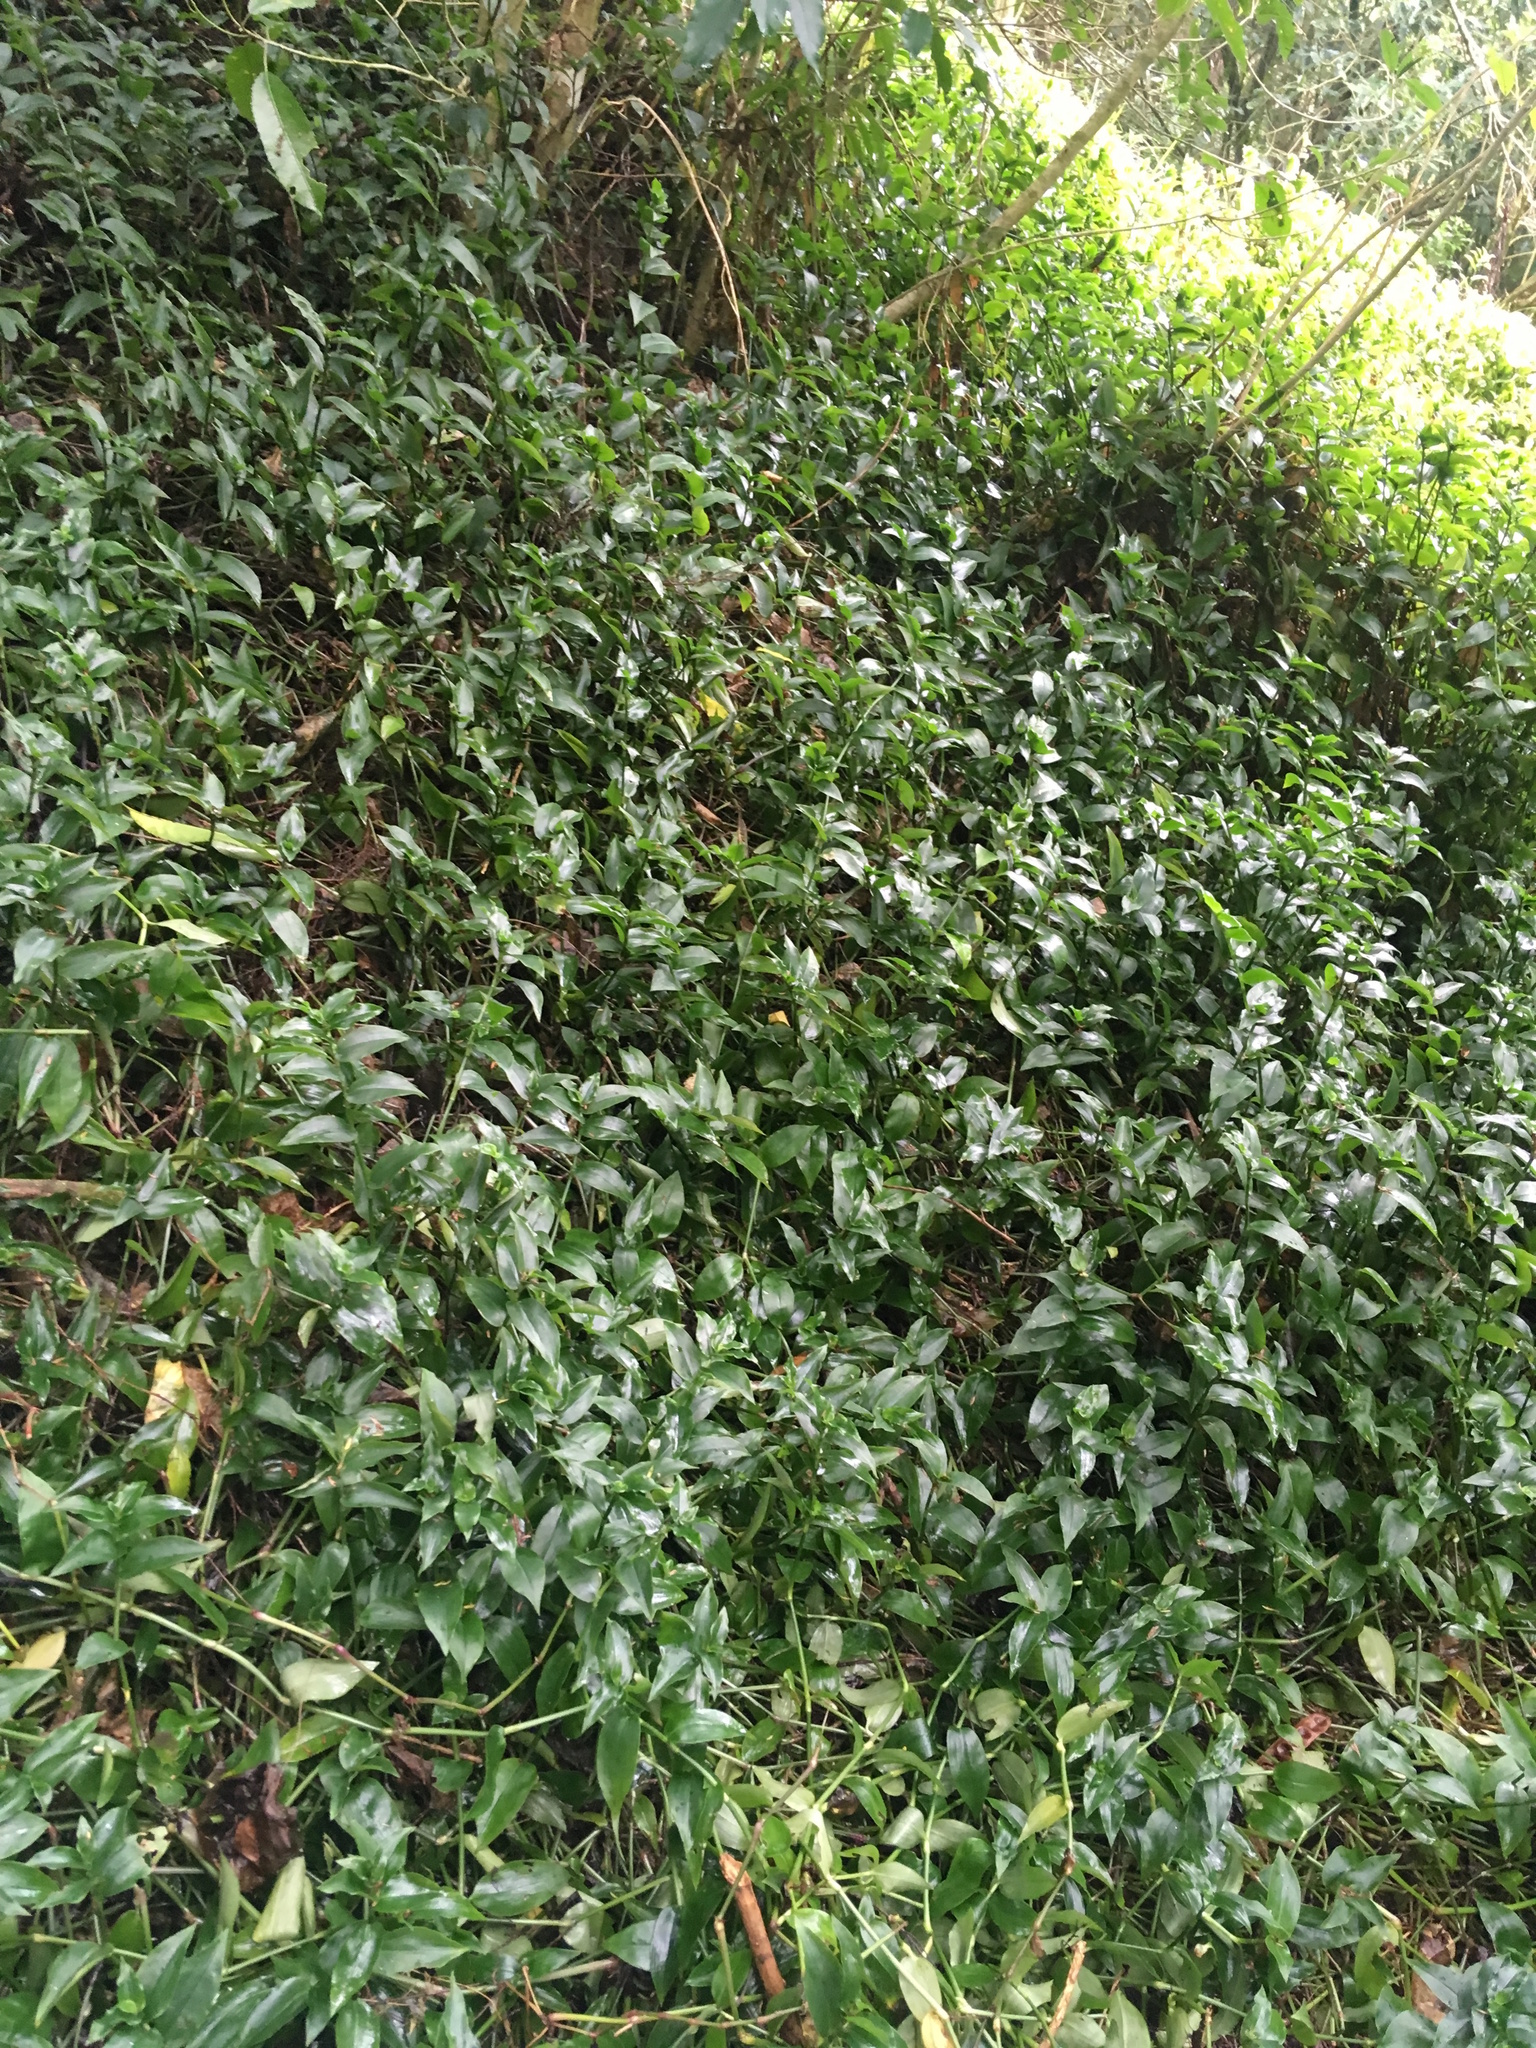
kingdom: Plantae
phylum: Tracheophyta
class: Liliopsida
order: Commelinales
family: Commelinaceae
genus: Tradescantia
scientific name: Tradescantia fluminensis
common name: Wandering-jew
